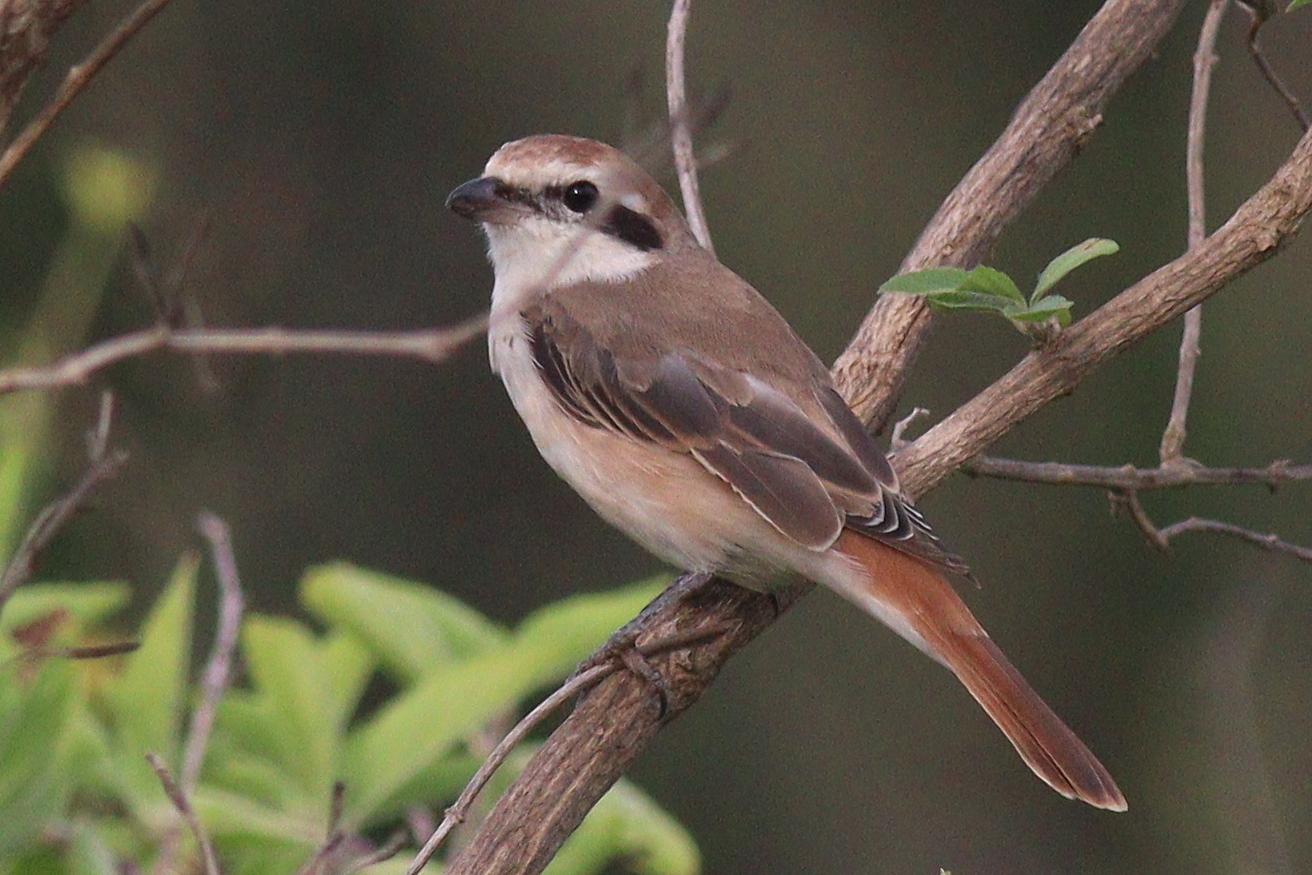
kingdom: Animalia
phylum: Chordata
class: Aves
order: Passeriformes
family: Laniidae
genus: Lanius
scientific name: Lanius phoenicuroides
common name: Red-tailed shrike
